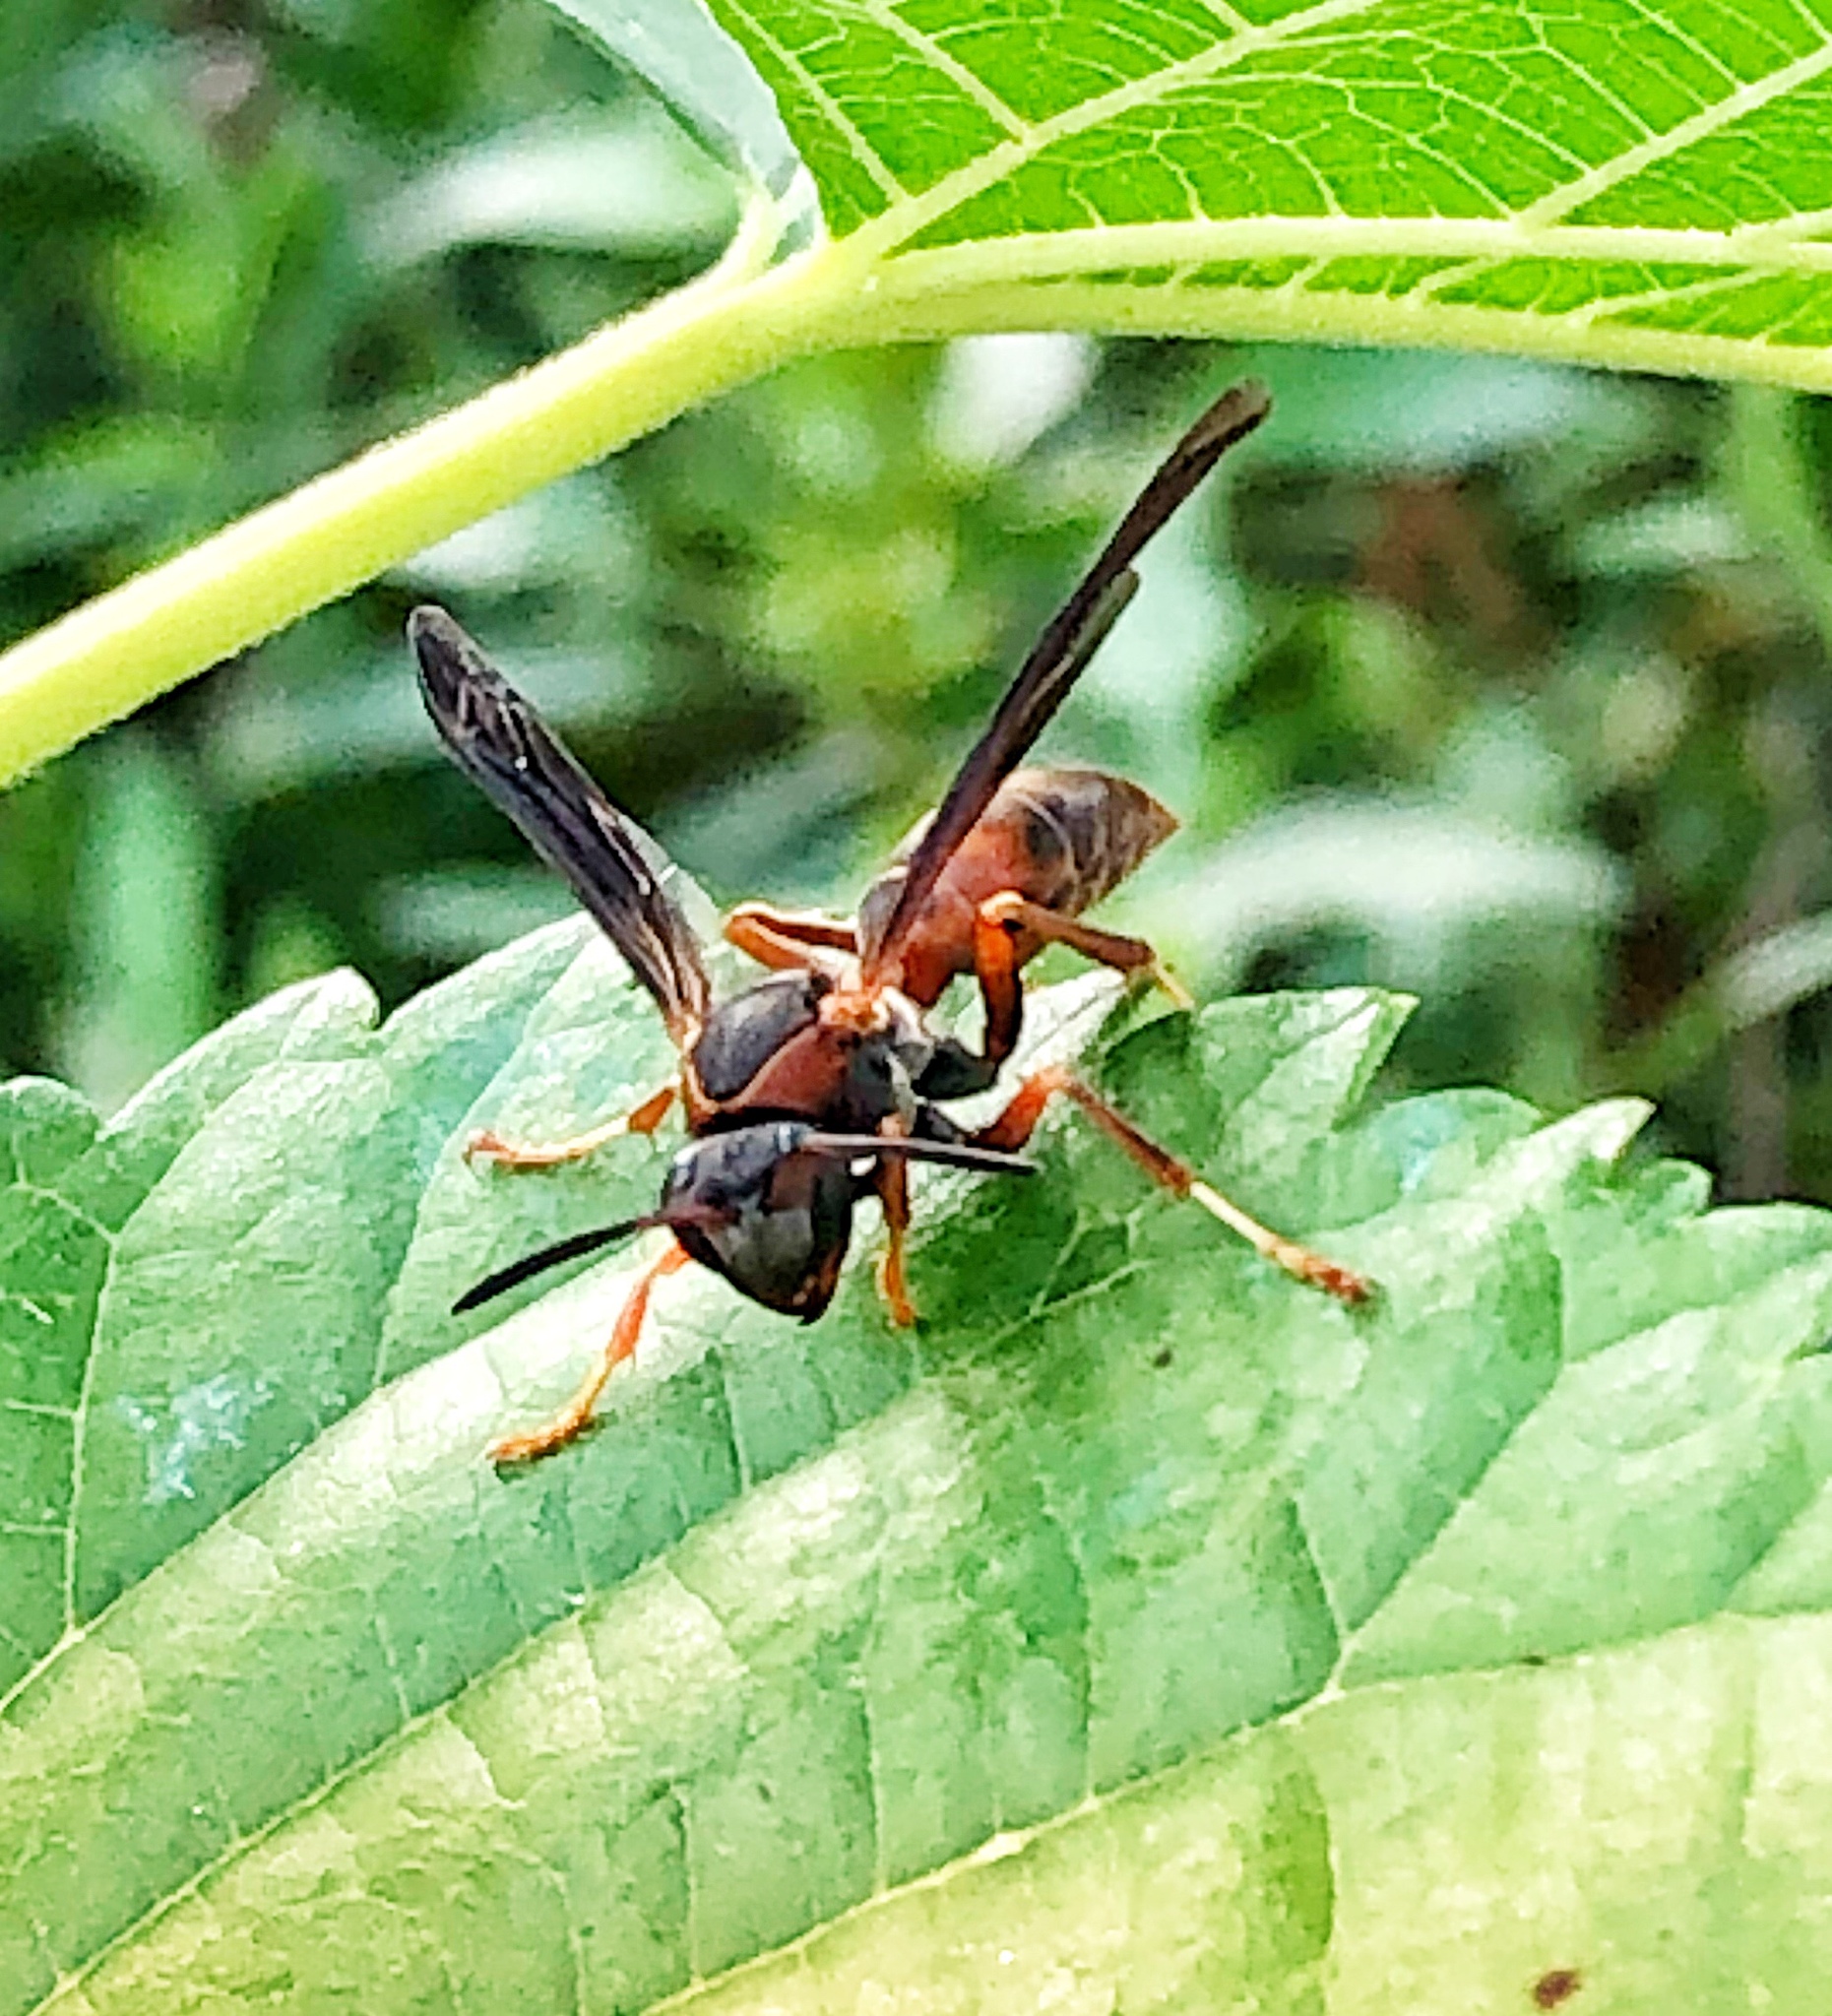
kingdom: Animalia
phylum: Arthropoda
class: Insecta
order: Hymenoptera
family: Eumenidae
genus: Polistes
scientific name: Polistes fuscatus
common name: Dark paper wasp
